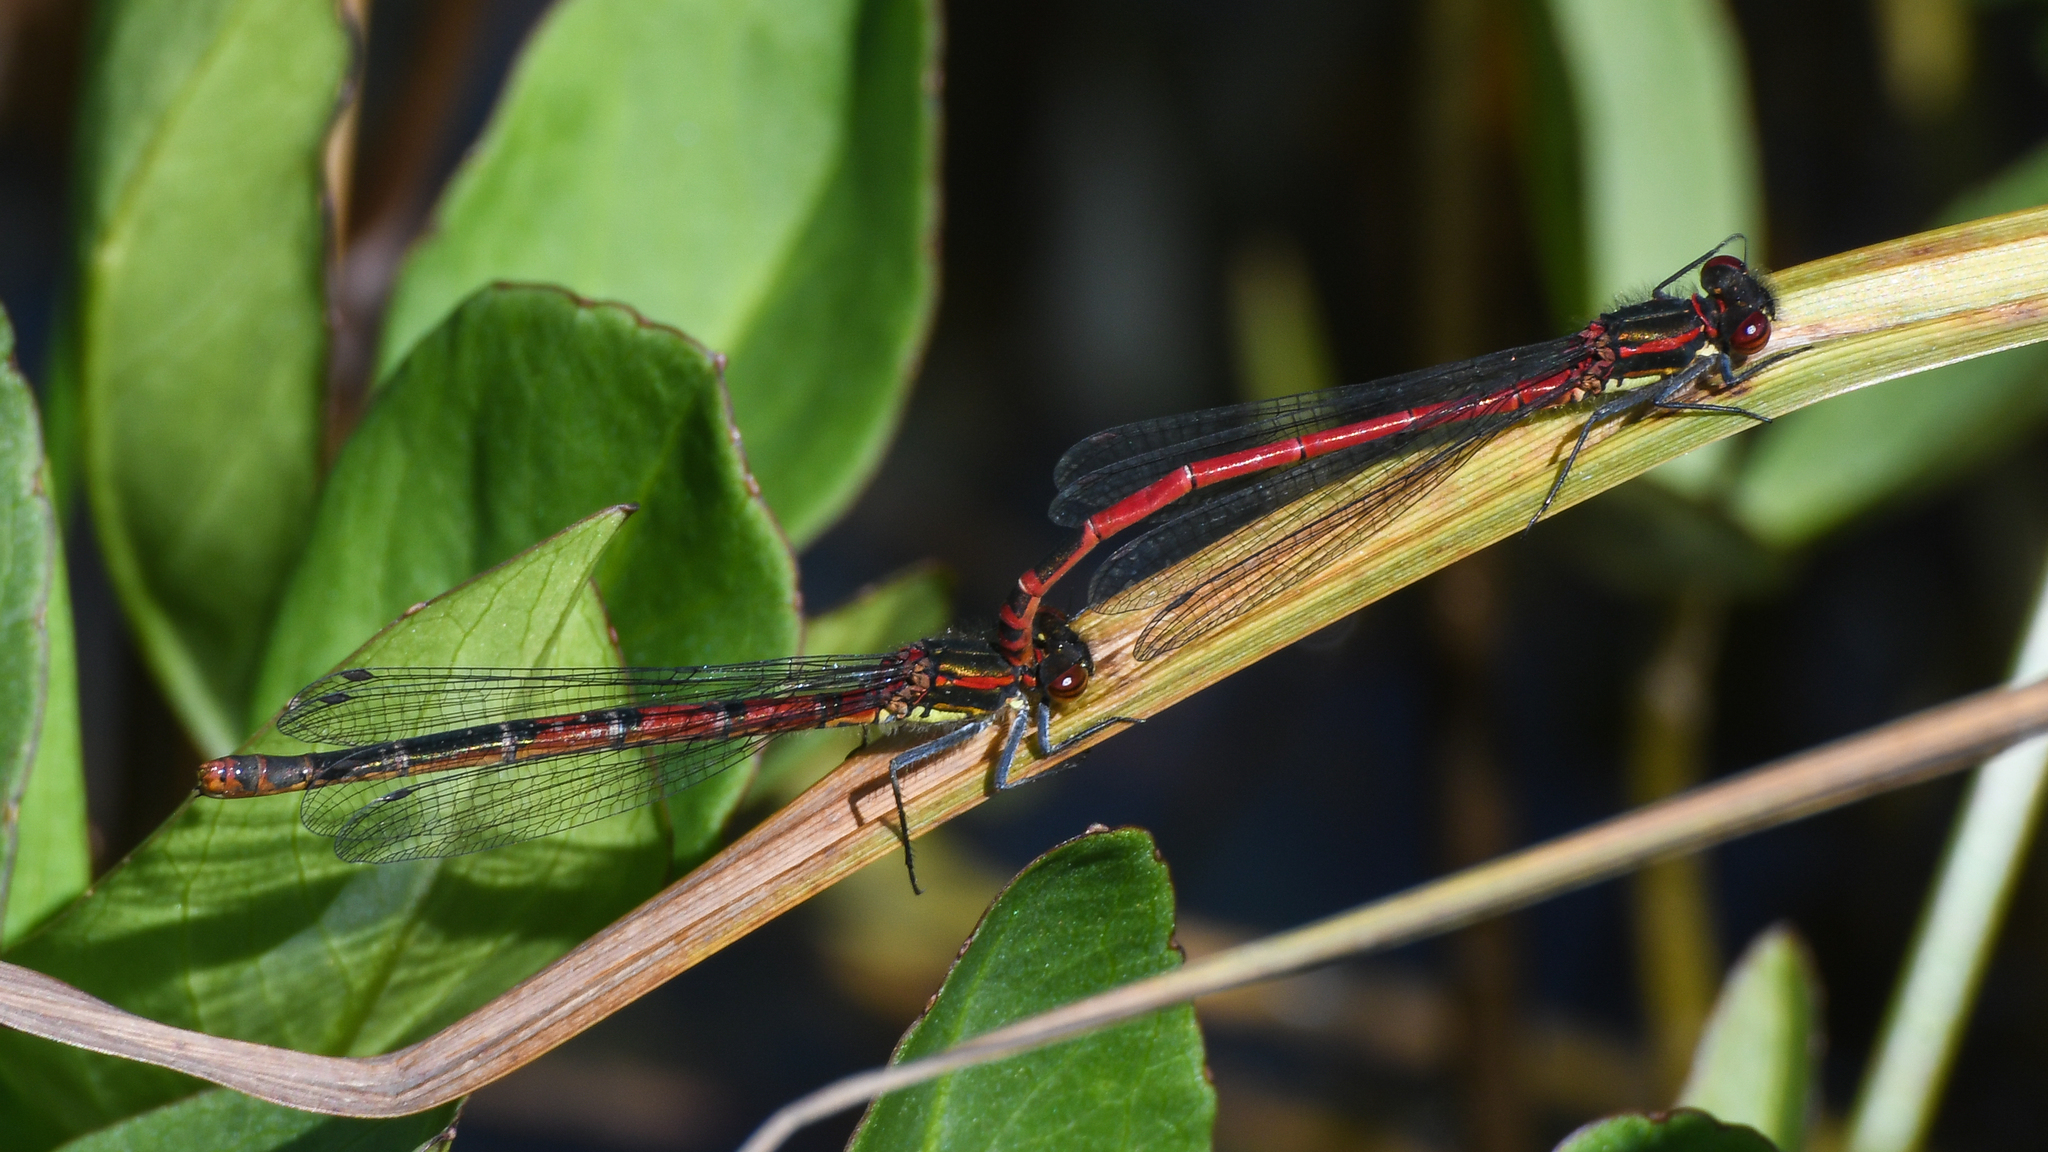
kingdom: Animalia
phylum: Arthropoda
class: Insecta
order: Odonata
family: Coenagrionidae
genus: Pyrrhosoma
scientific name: Pyrrhosoma nymphula
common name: Large red damsel
